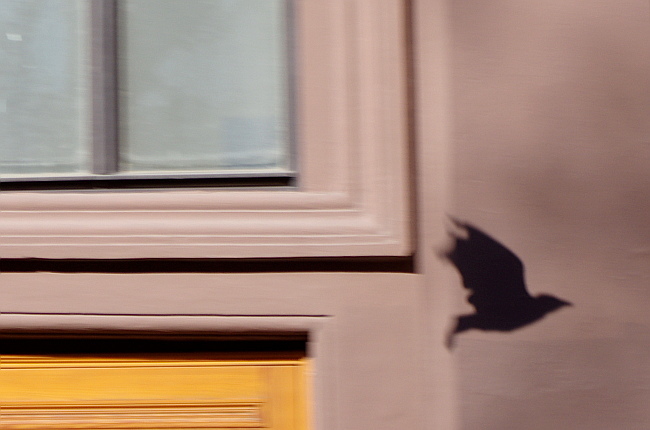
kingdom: Animalia
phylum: Chordata
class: Aves
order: Passeriformes
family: Corvidae
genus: Corvus
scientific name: Corvus cornix
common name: Hooded crow
